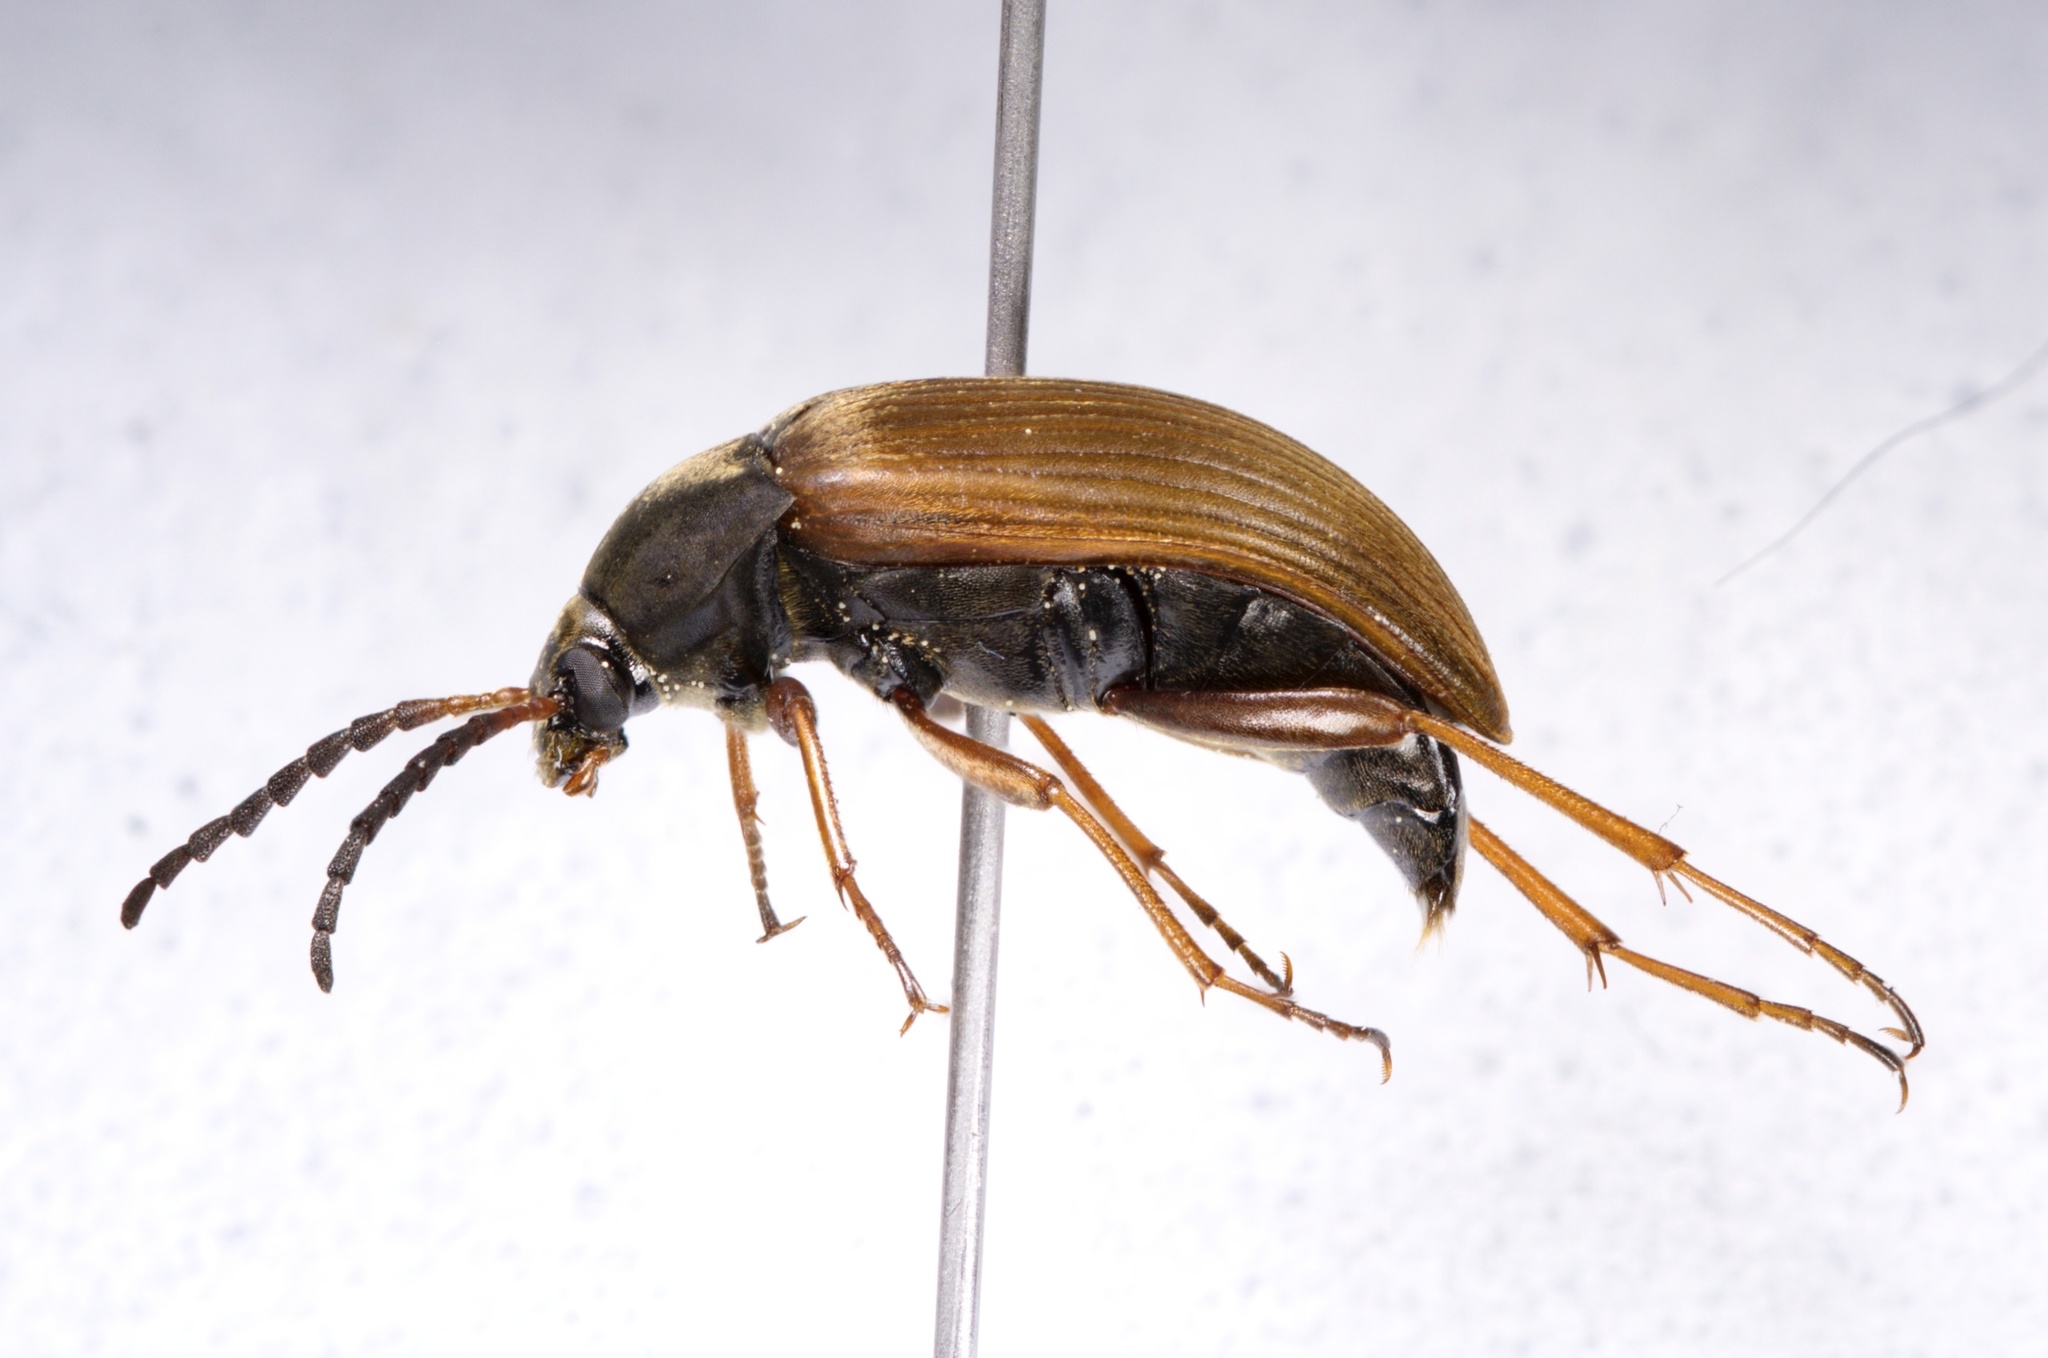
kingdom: Animalia
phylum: Arthropoda
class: Insecta
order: Coleoptera
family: Tenebrionidae
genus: Pseudocistela
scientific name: Pseudocistela brevis
